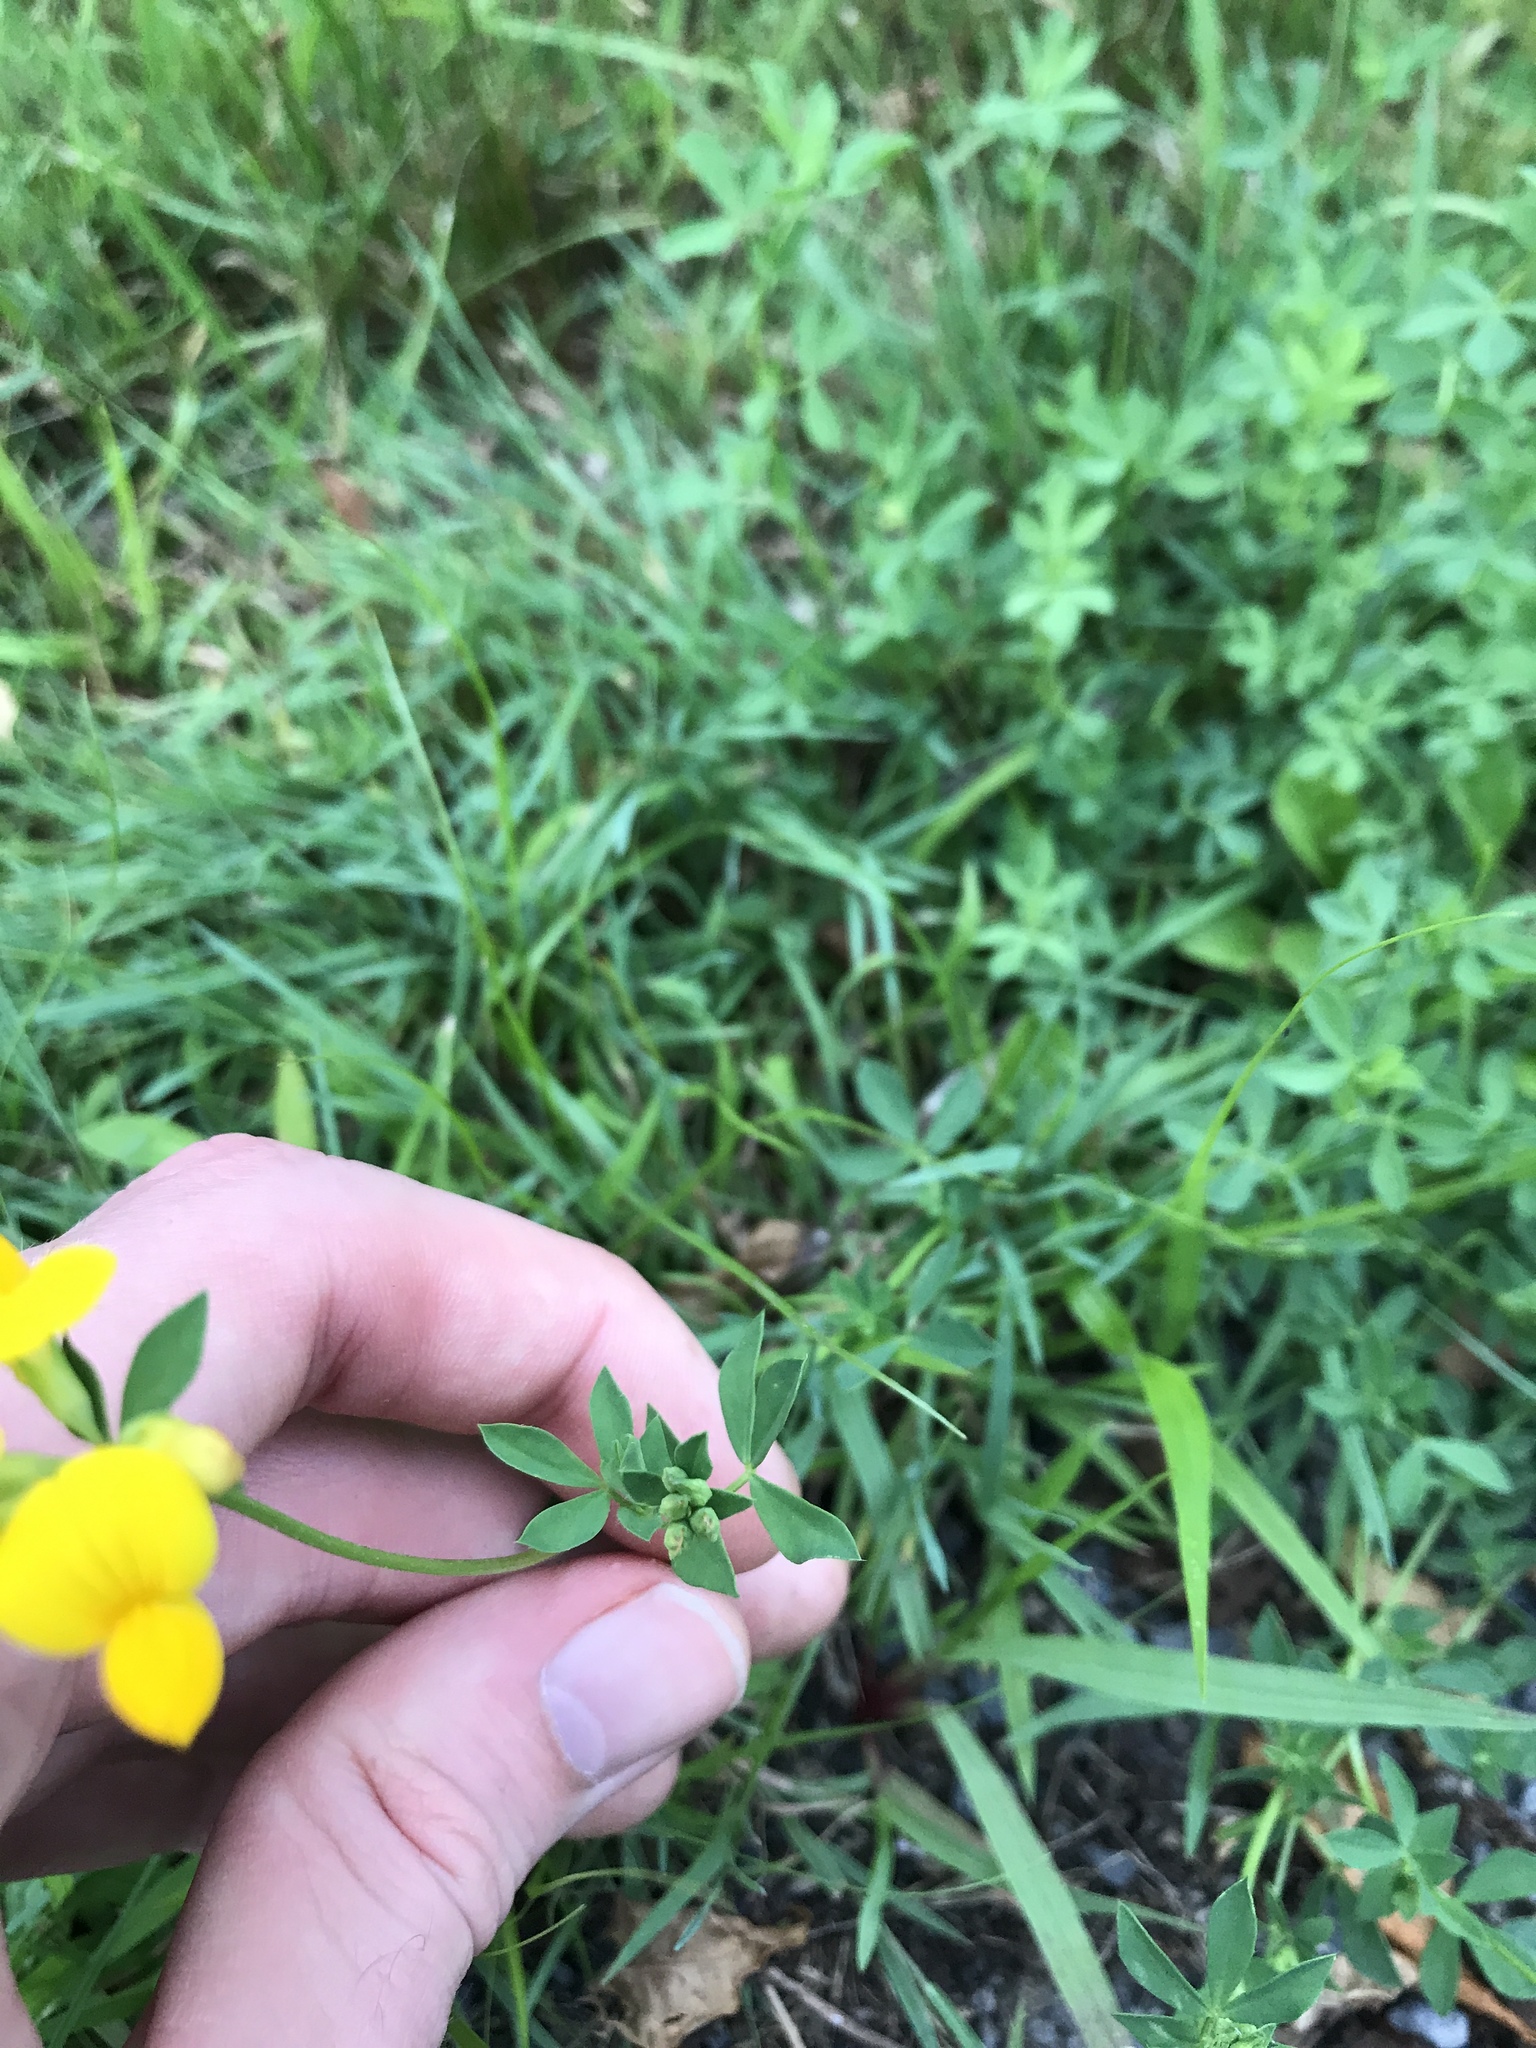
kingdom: Plantae
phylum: Tracheophyta
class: Magnoliopsida
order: Fabales
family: Fabaceae
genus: Lotus
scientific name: Lotus corniculatus
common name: Common bird's-foot-trefoil
